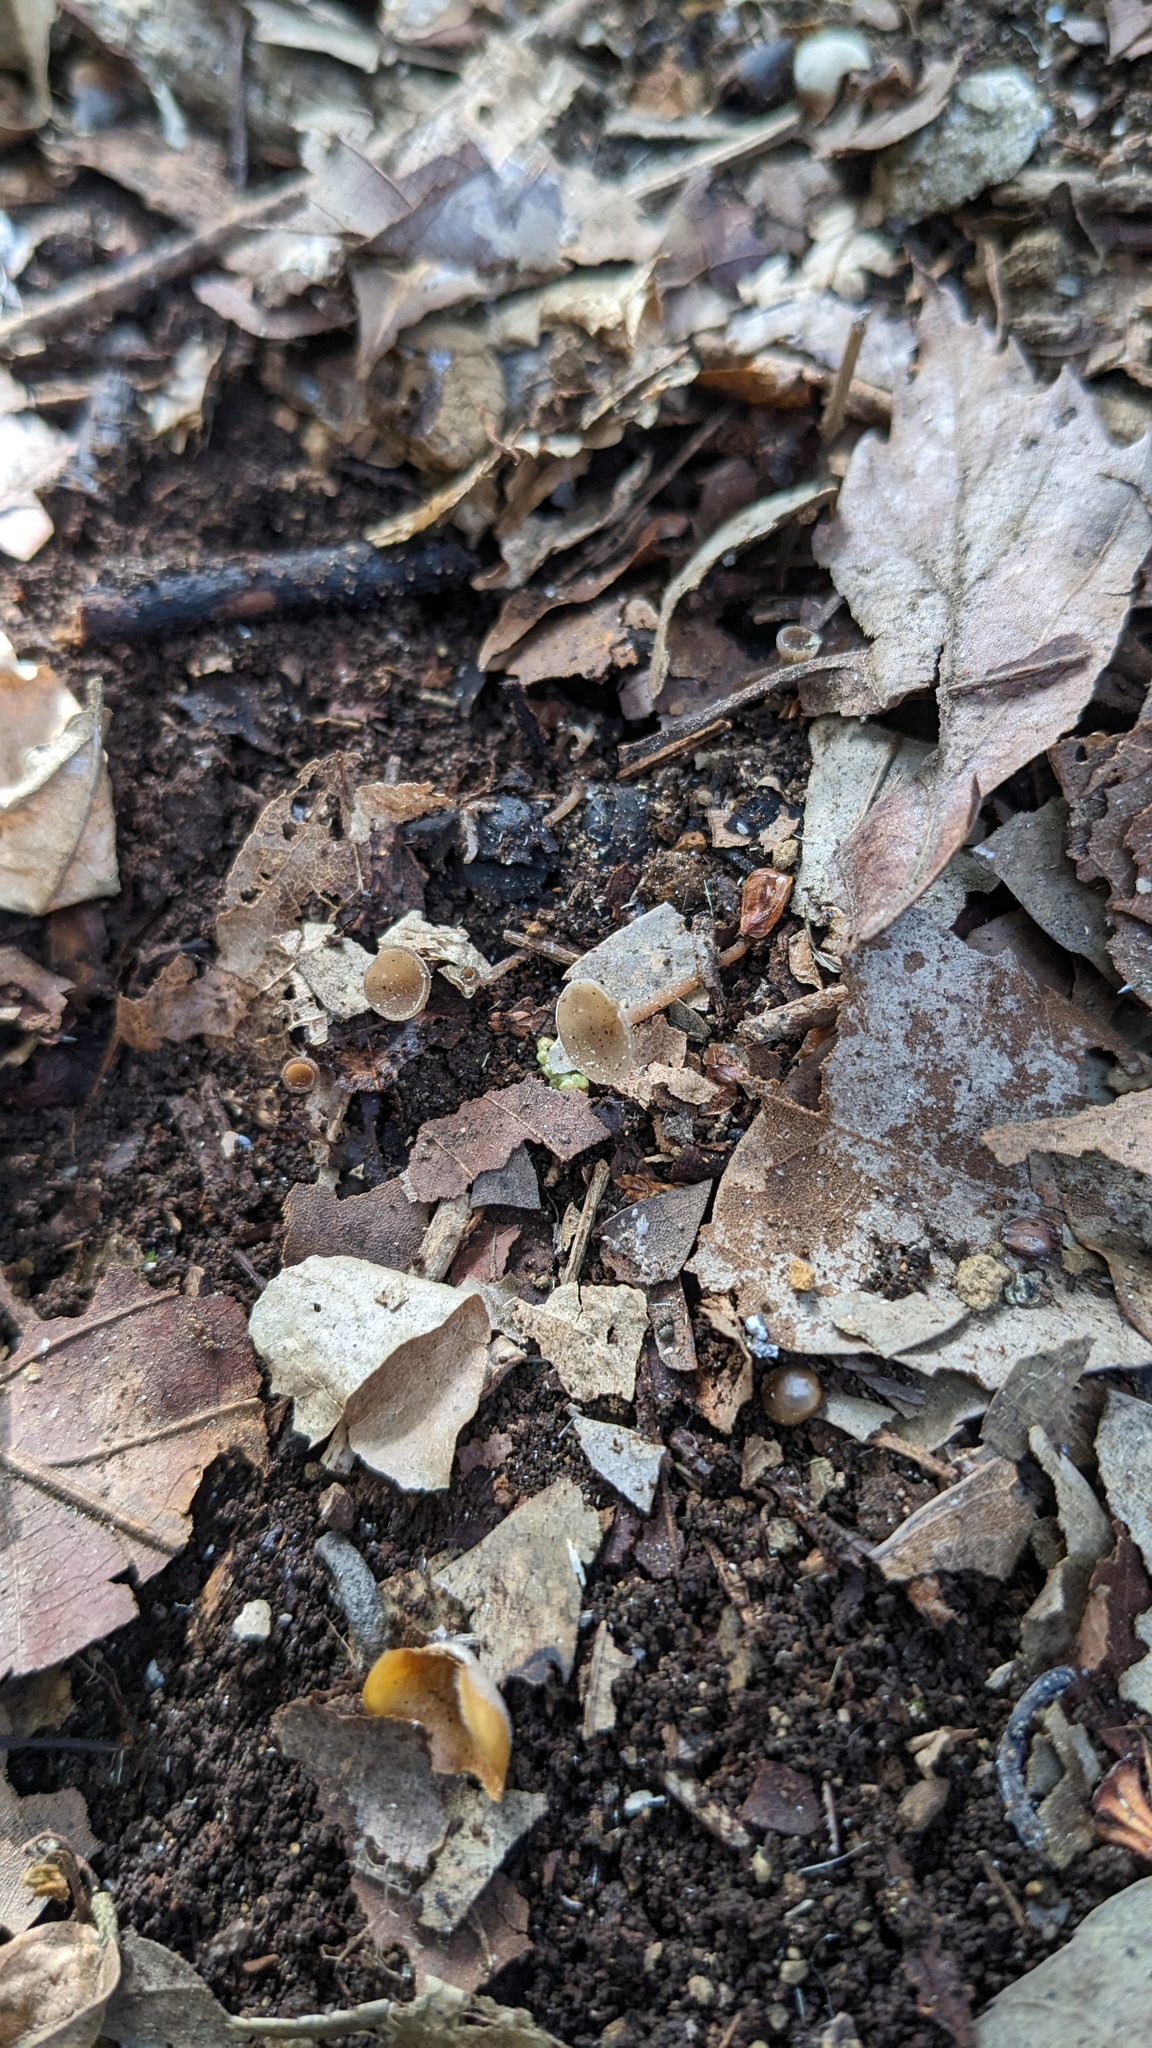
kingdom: Fungi
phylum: Ascomycota
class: Leotiomycetes
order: Helotiales
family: Sclerotiniaceae
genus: Ciborinia
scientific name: Ciborinia camelliae
